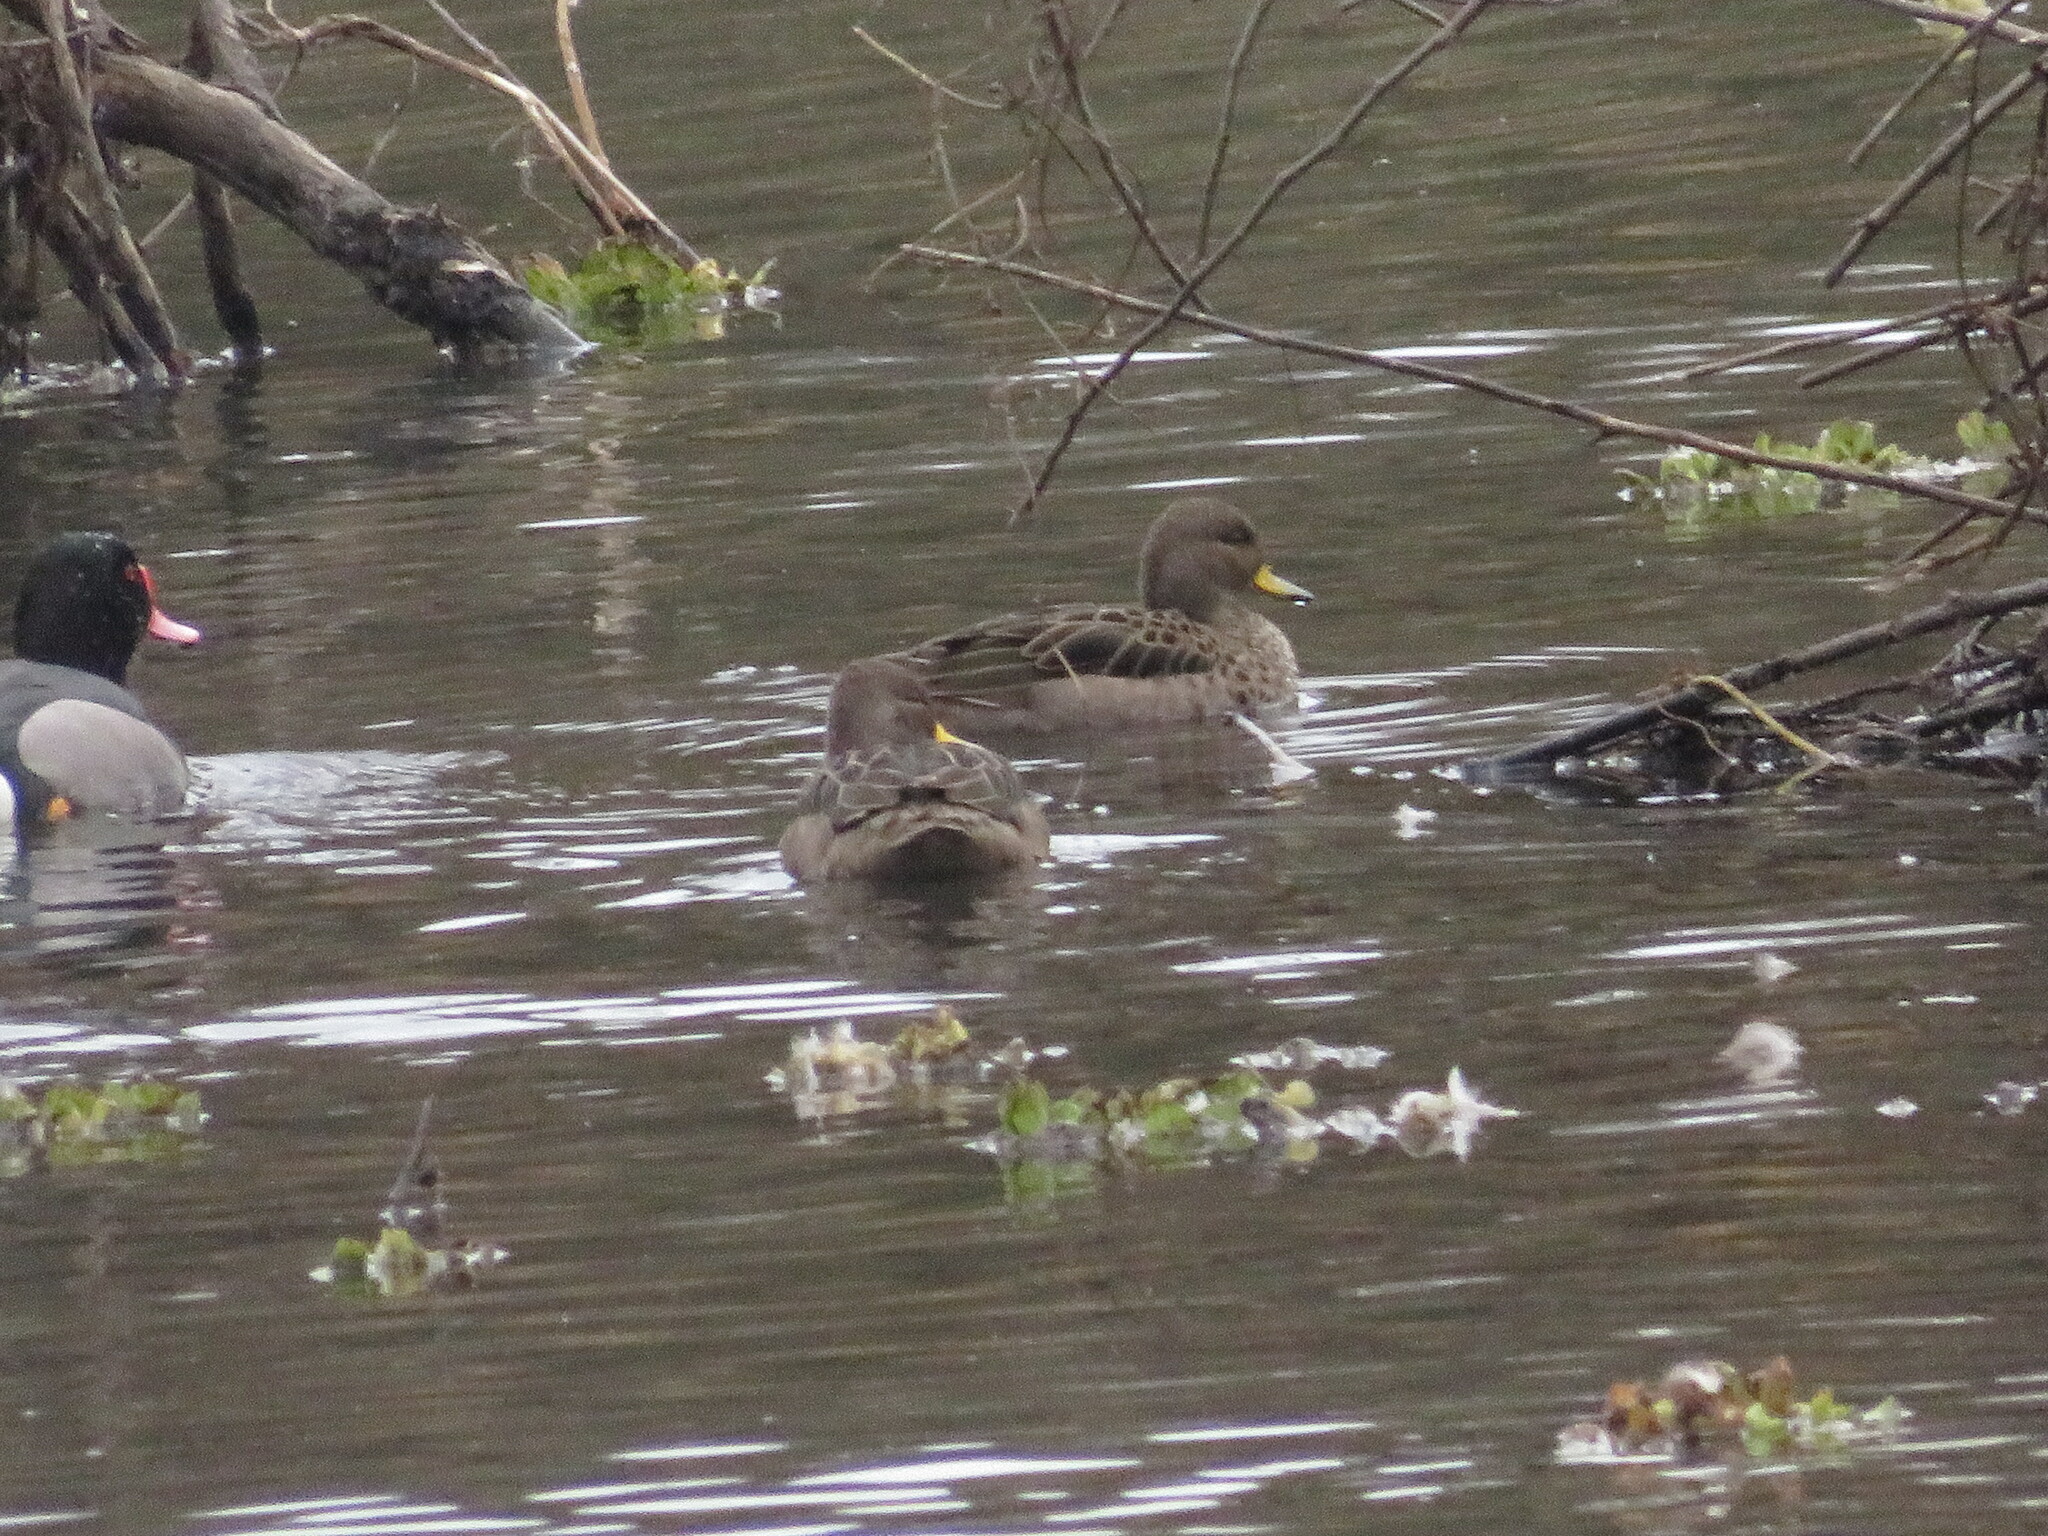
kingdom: Animalia
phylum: Chordata
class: Aves
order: Anseriformes
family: Anatidae
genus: Anas
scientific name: Anas flavirostris
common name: Yellow-billed teal
